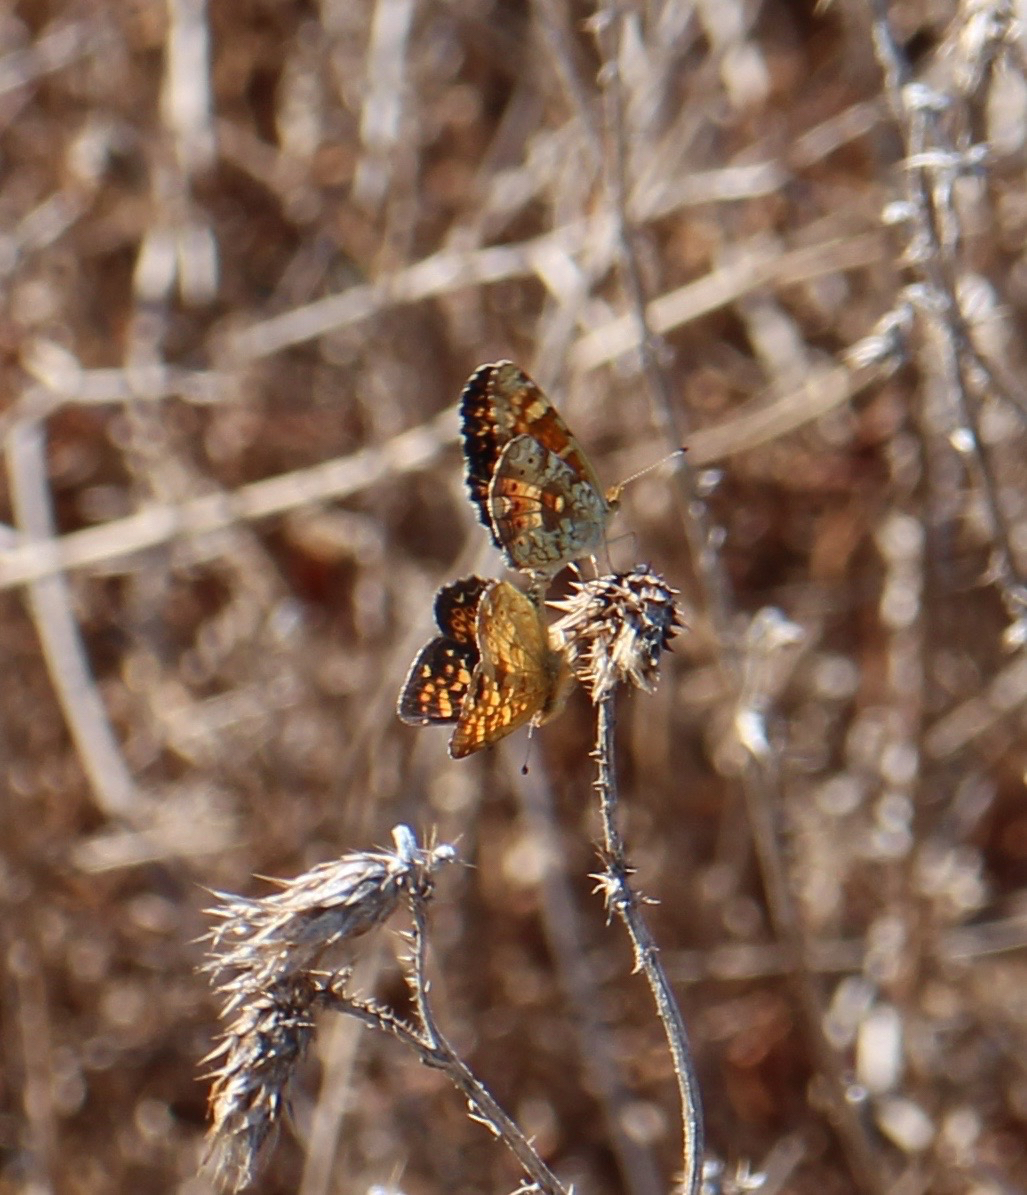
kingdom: Animalia
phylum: Arthropoda
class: Insecta
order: Lepidoptera
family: Nymphalidae
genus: Phyciodes
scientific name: Phyciodes tharos
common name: Pearl crescent
